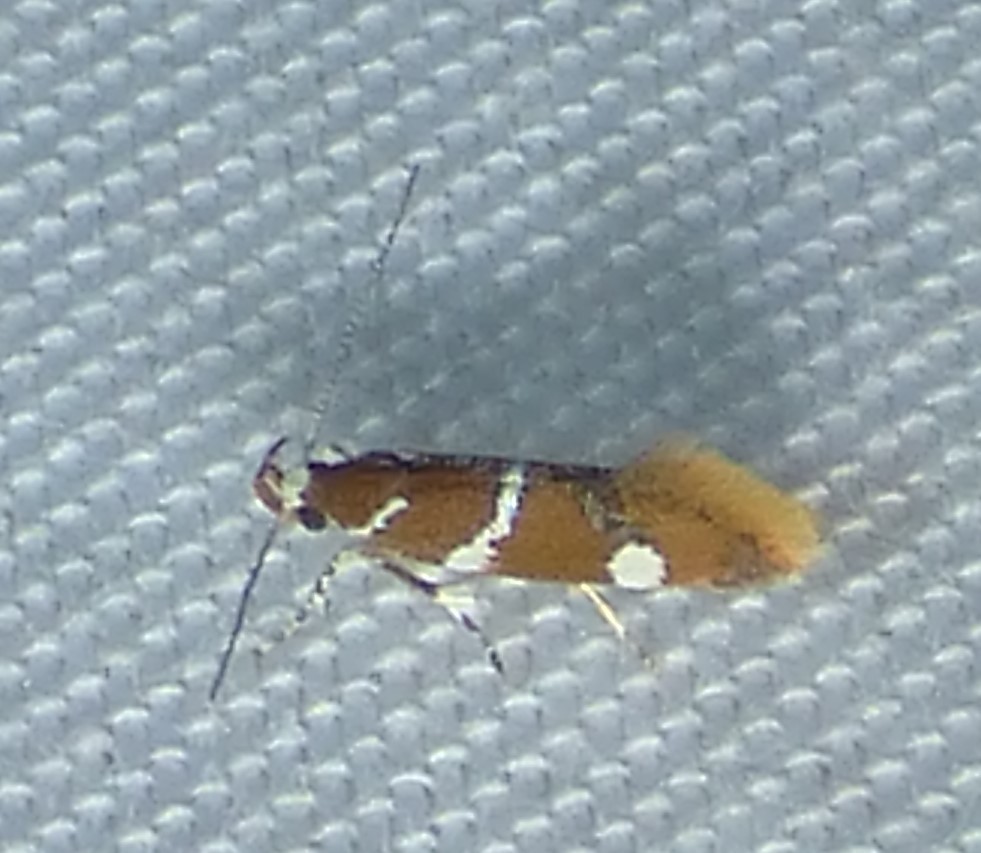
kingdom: Animalia
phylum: Arthropoda
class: Insecta
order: Lepidoptera
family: Oecophoridae
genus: Promalactis
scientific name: Promalactis suzukiella
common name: Moth
